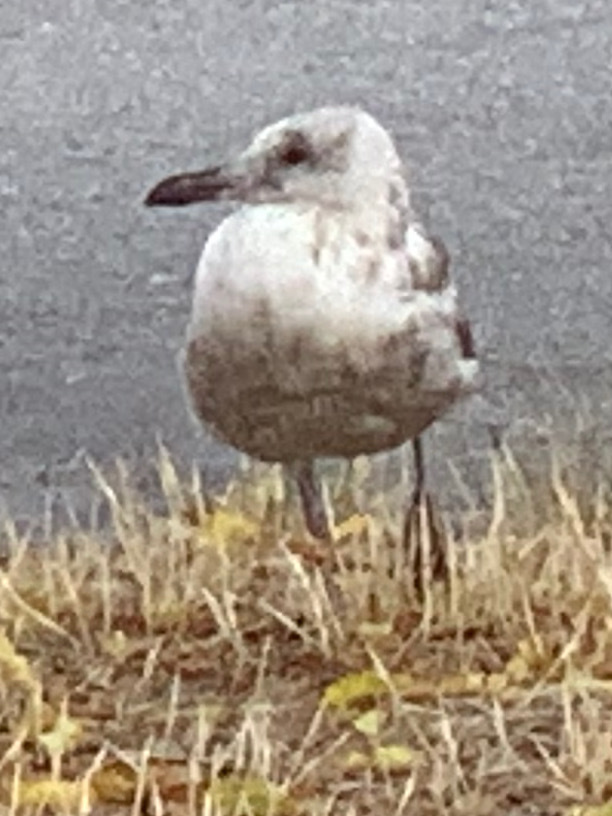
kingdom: Animalia
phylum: Chordata
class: Aves
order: Charadriiformes
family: Laridae
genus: Larus
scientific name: Larus
